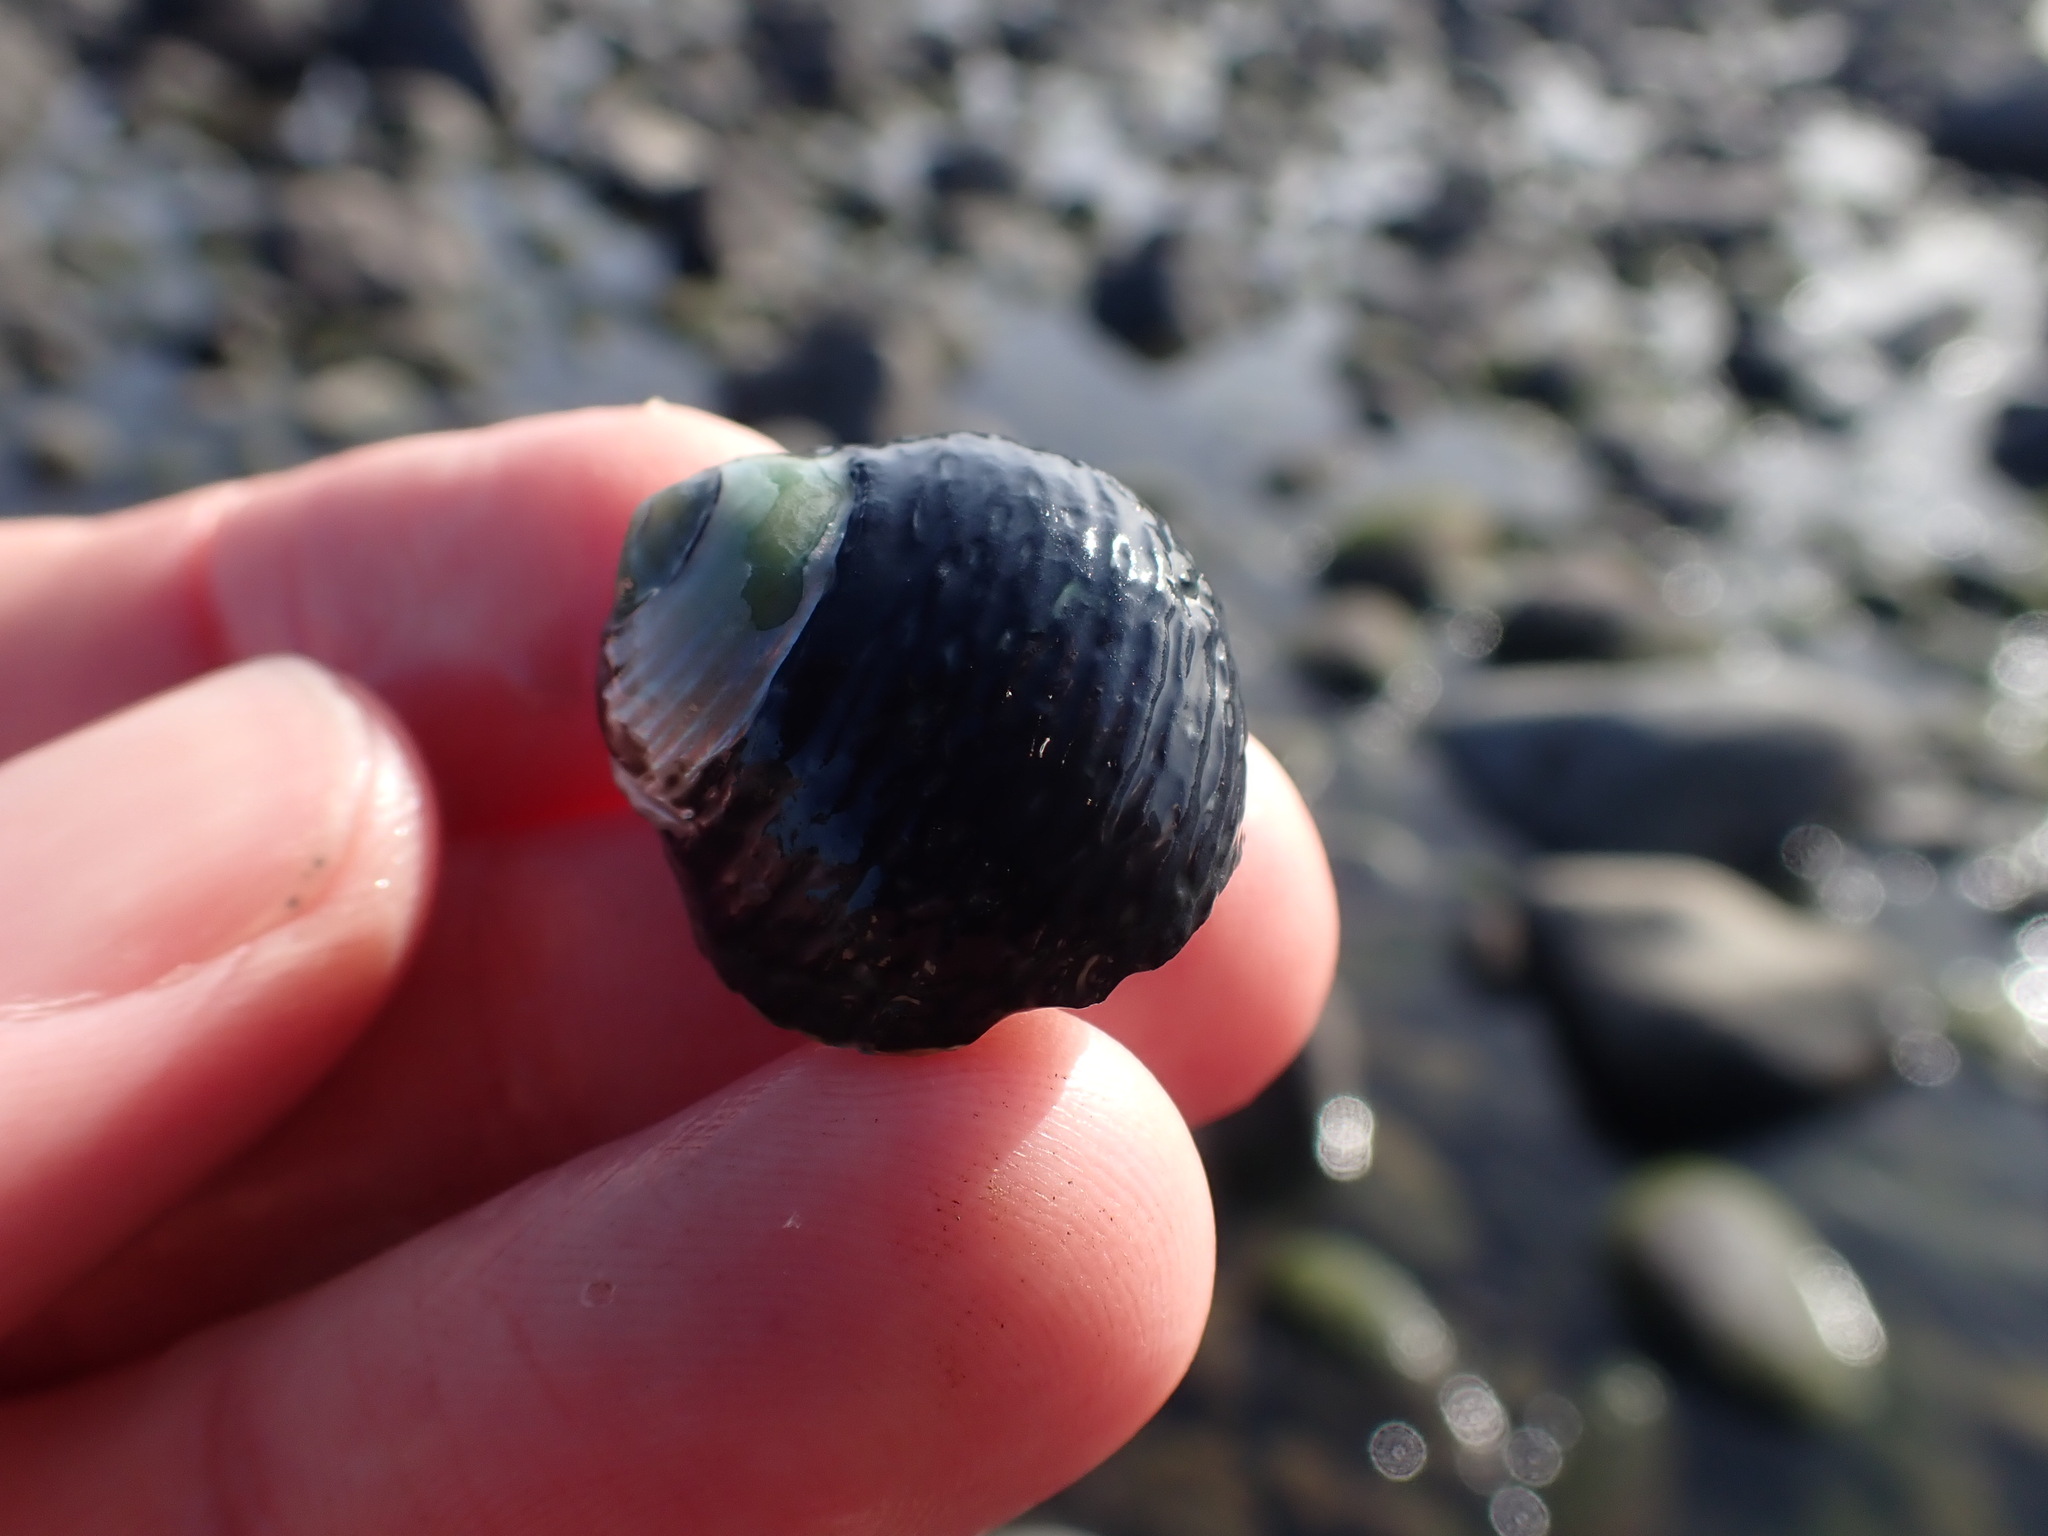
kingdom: Animalia
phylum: Mollusca
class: Gastropoda
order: Trochida
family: Trochidae
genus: Diloma
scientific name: Diloma zelandicum
